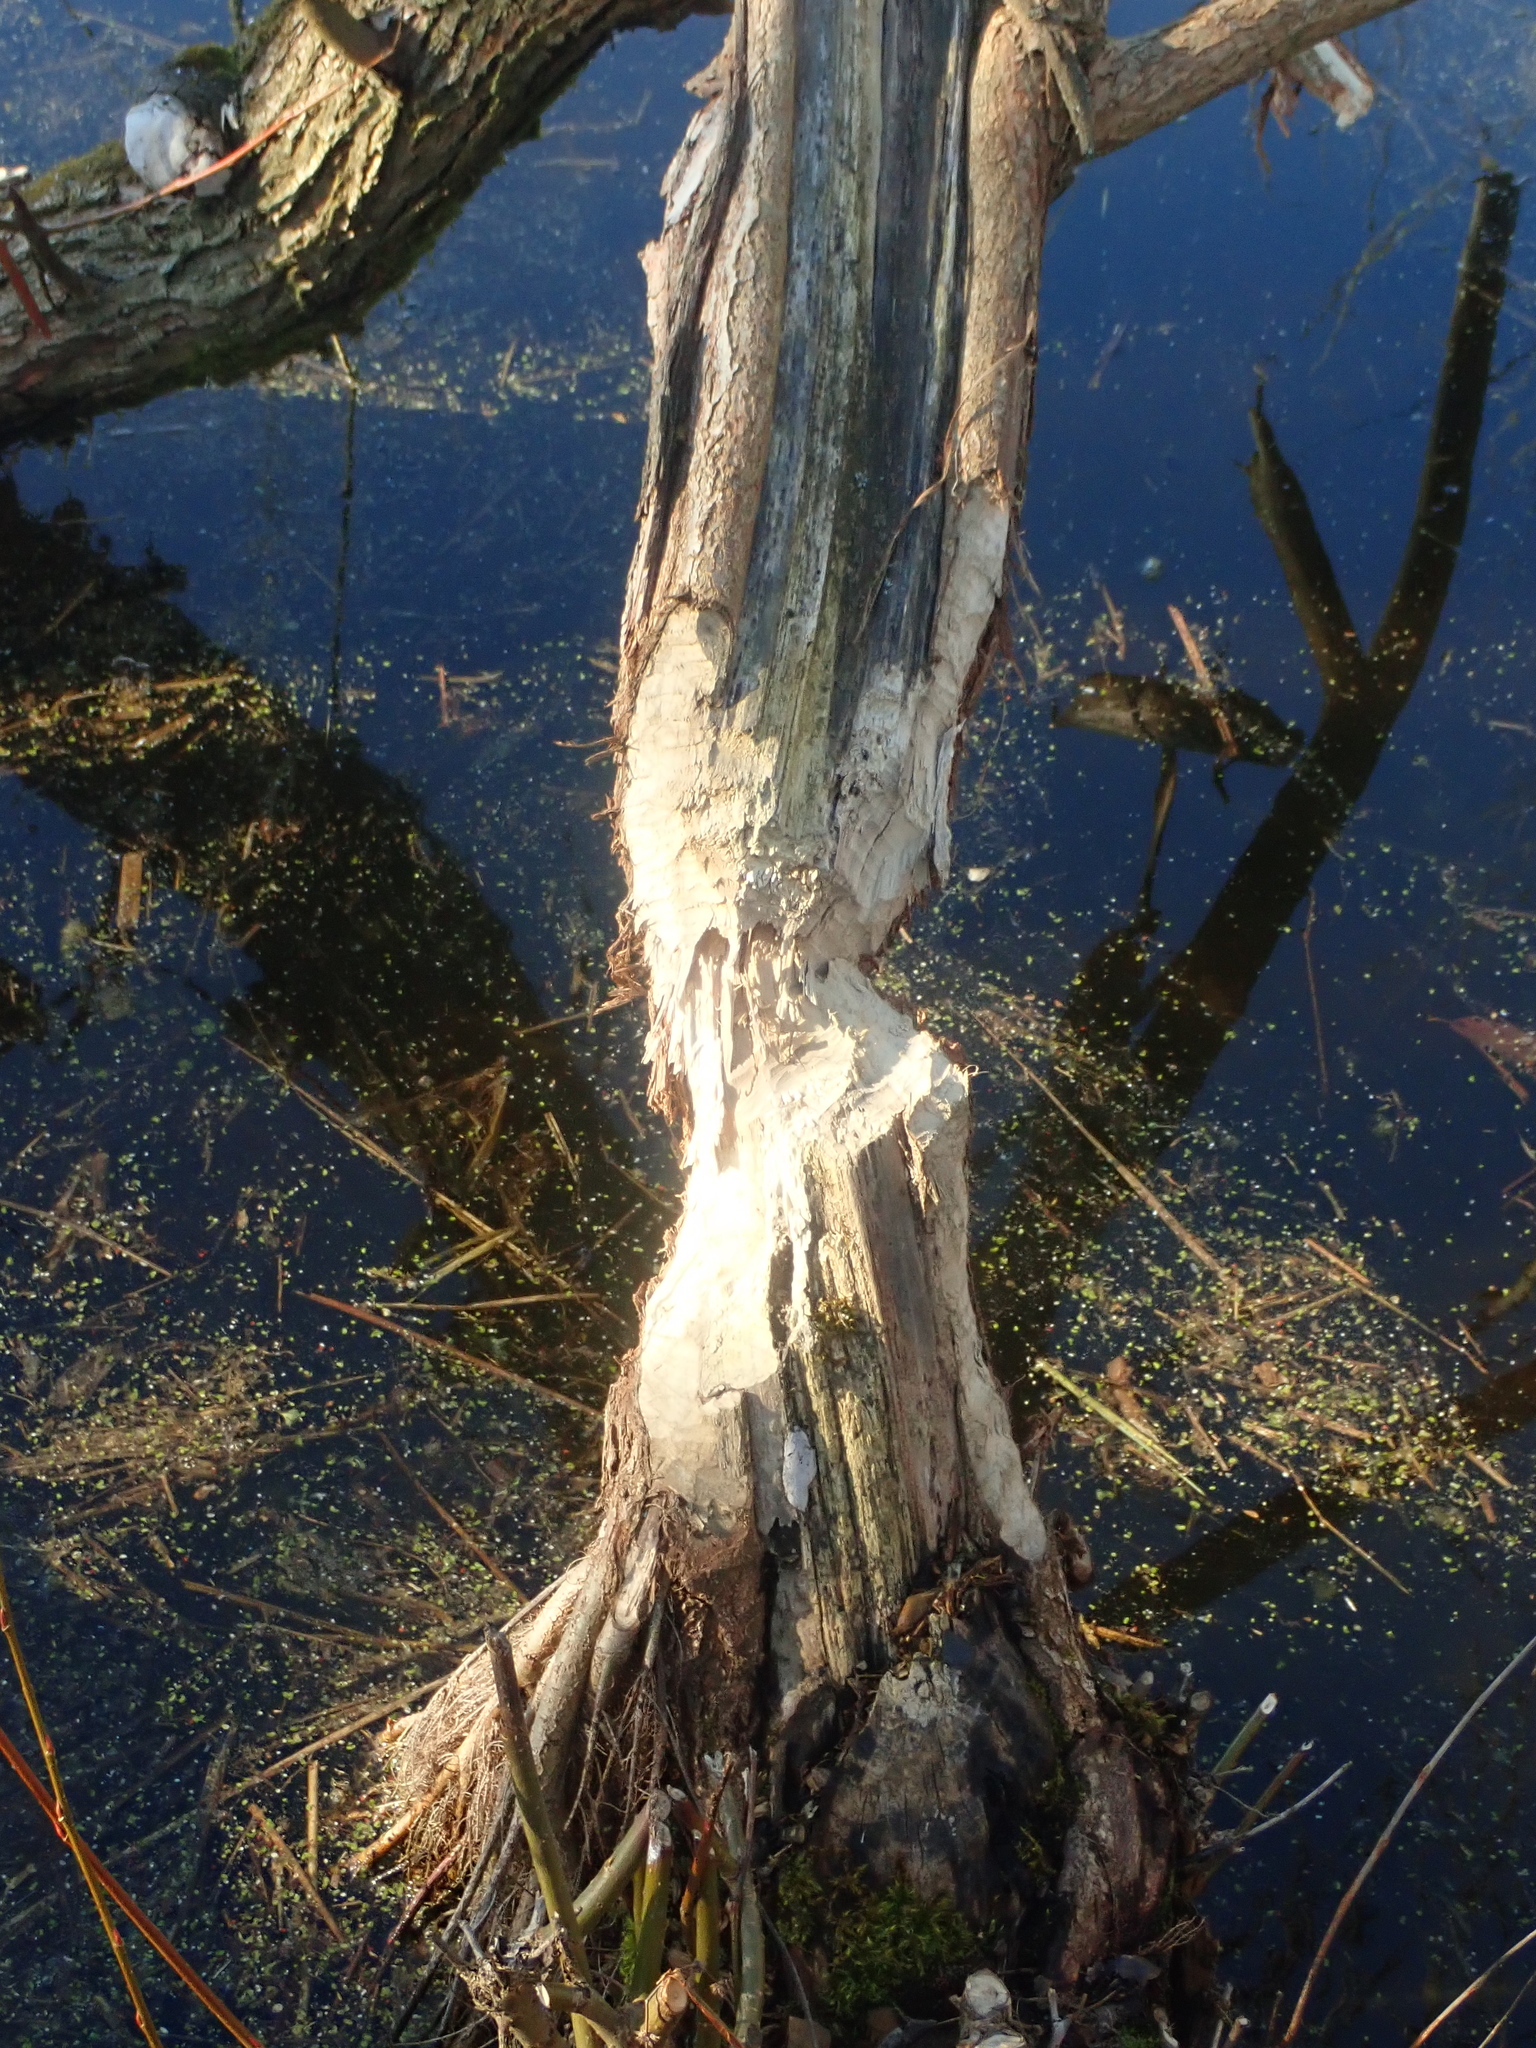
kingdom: Animalia
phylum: Chordata
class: Mammalia
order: Rodentia
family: Castoridae
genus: Castor
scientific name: Castor fiber
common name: Eurasian beaver
